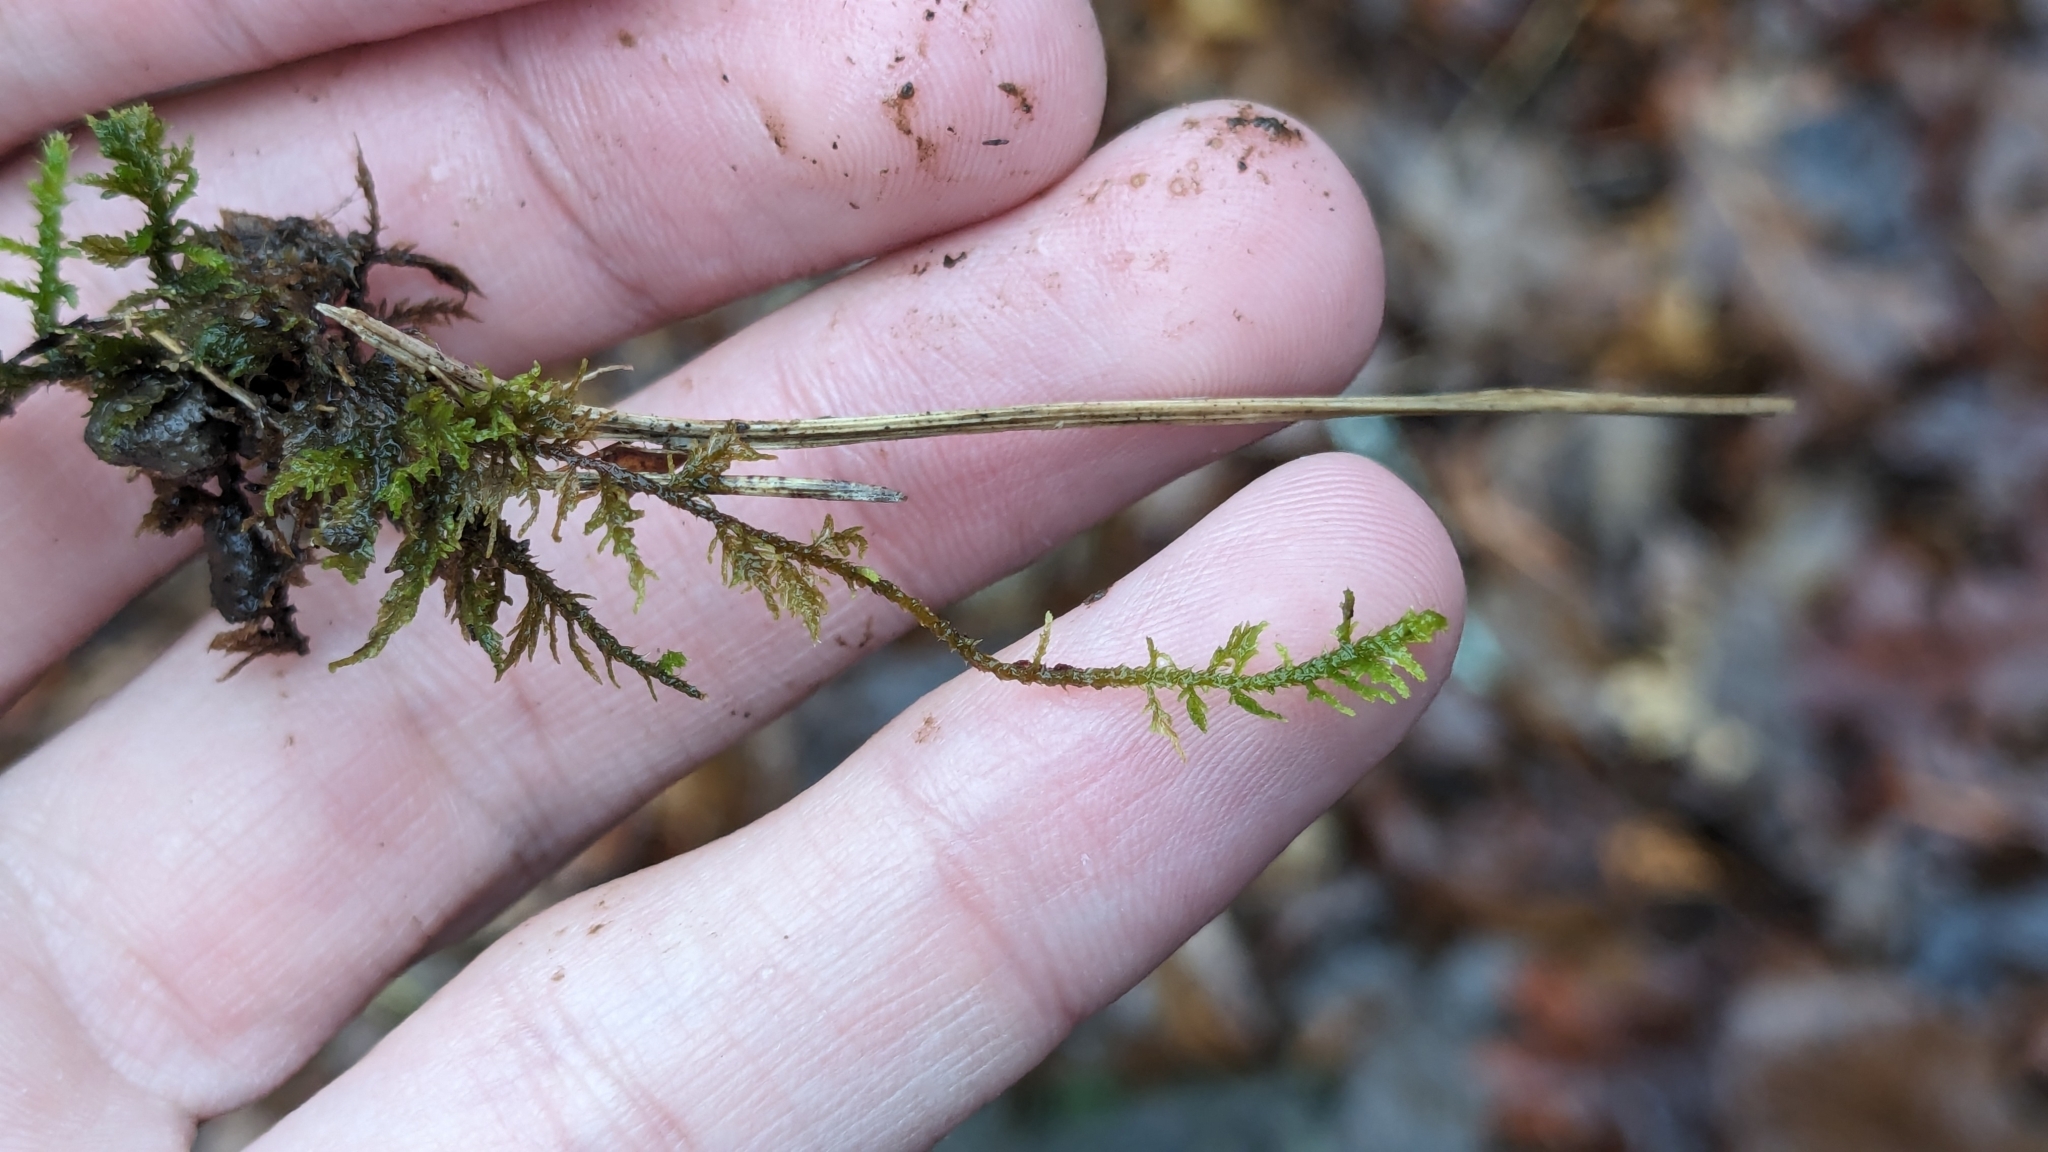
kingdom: Plantae
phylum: Bryophyta
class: Bryopsida
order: Hypnales
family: Thuidiaceae
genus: Thuidium
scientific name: Thuidium delicatulum
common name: Delicate fern moss
